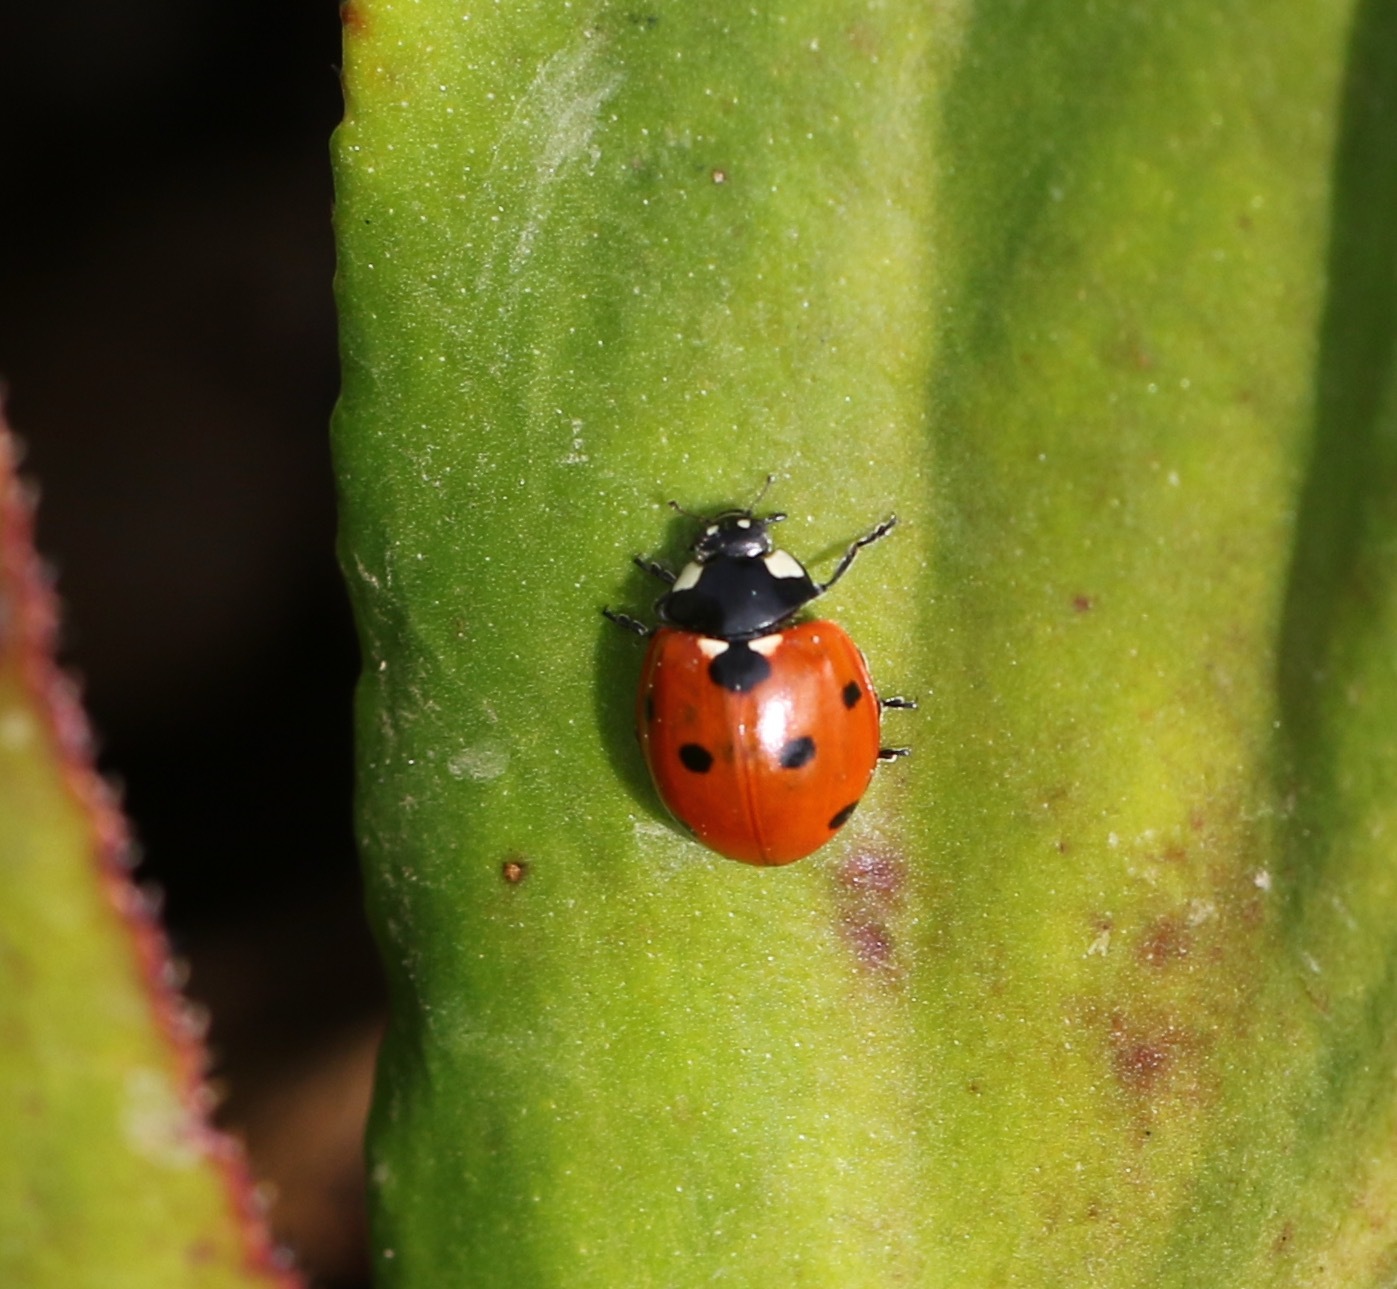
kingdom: Animalia
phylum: Arthropoda
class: Insecta
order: Coleoptera
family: Coccinellidae
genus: Coccinella
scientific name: Coccinella septempunctata
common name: Sevenspotted lady beetle
